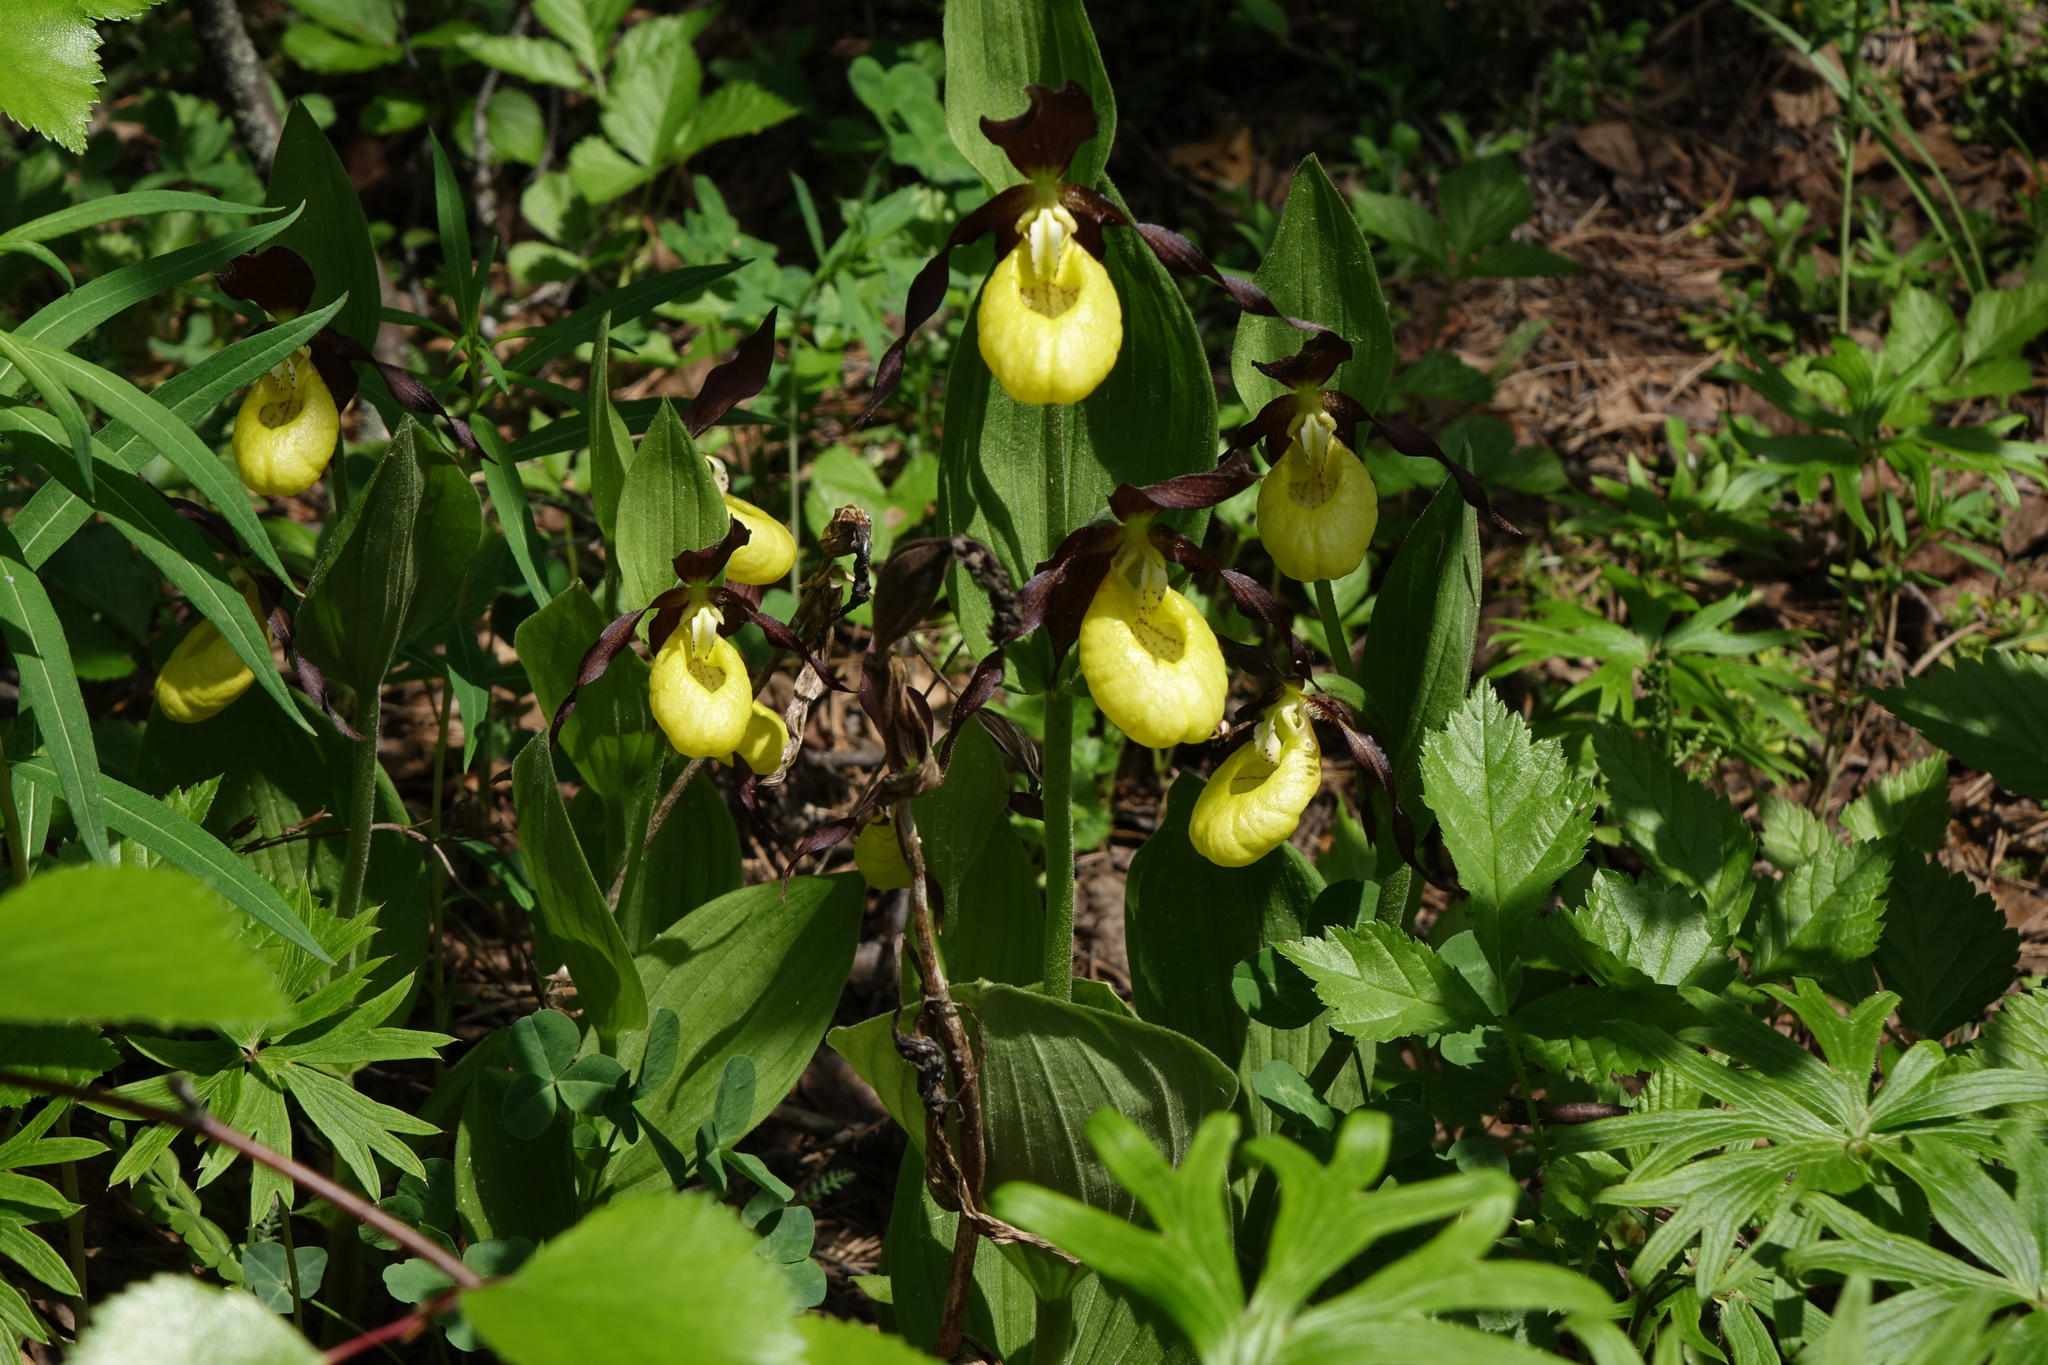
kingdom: Plantae
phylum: Tracheophyta
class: Liliopsida
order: Asparagales
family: Orchidaceae
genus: Cypripedium
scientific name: Cypripedium calceolus
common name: Lady's-slipper
